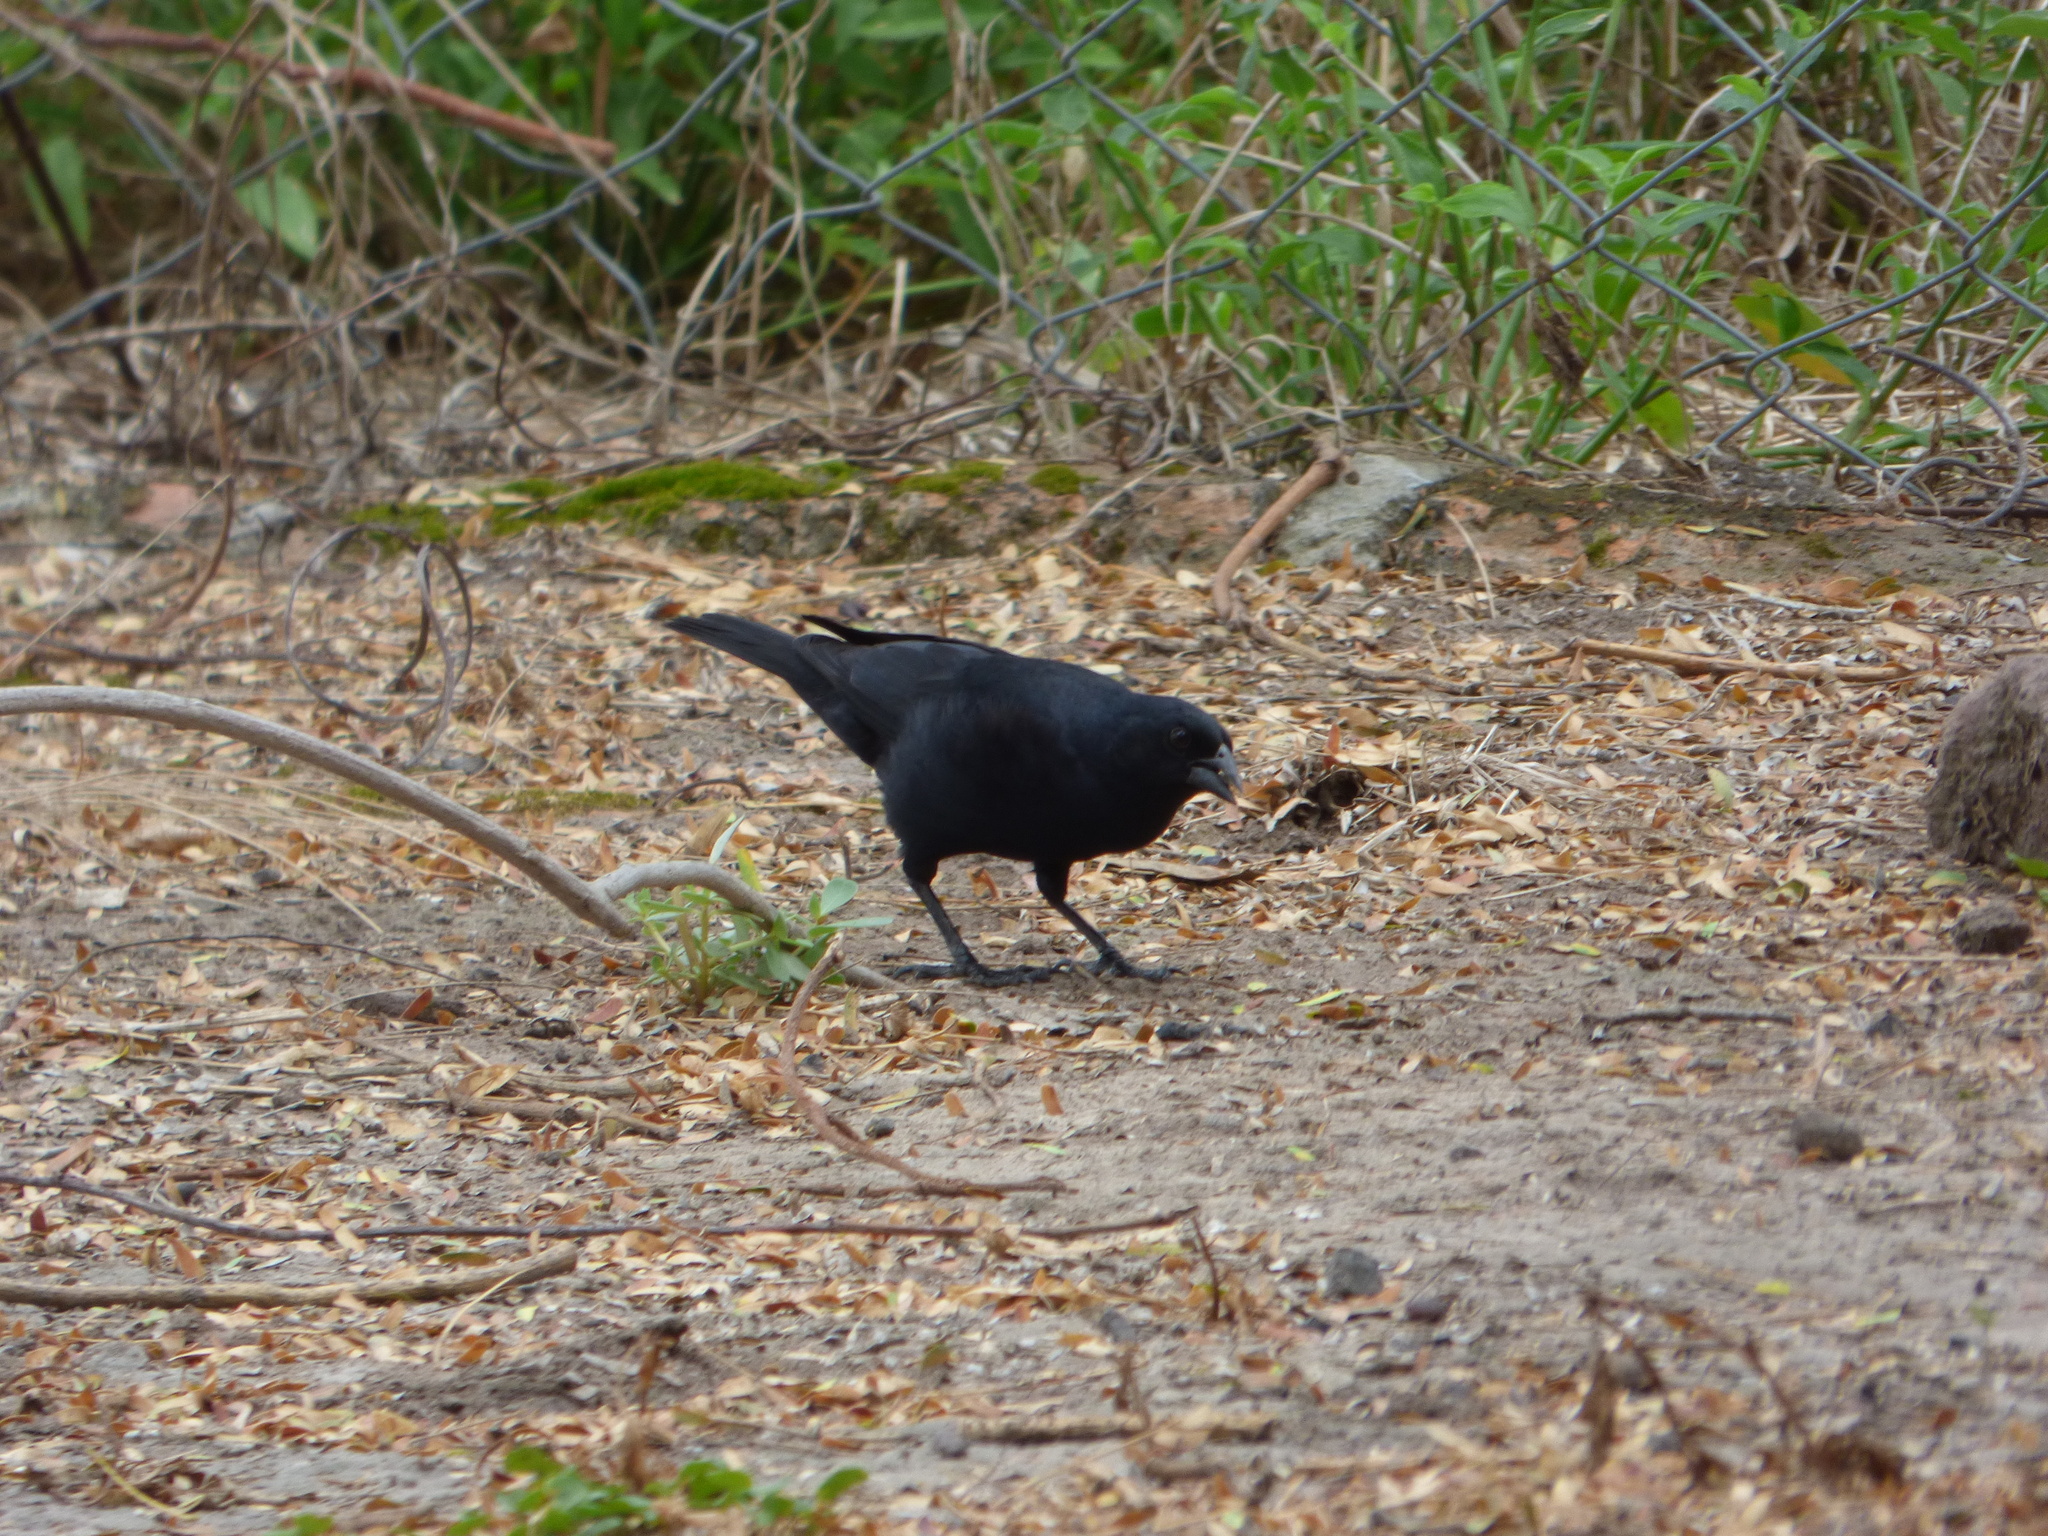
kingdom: Animalia
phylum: Chordata
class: Aves
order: Passeriformes
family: Icteridae
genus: Molothrus
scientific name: Molothrus rufoaxillaris
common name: Screaming cowbird
